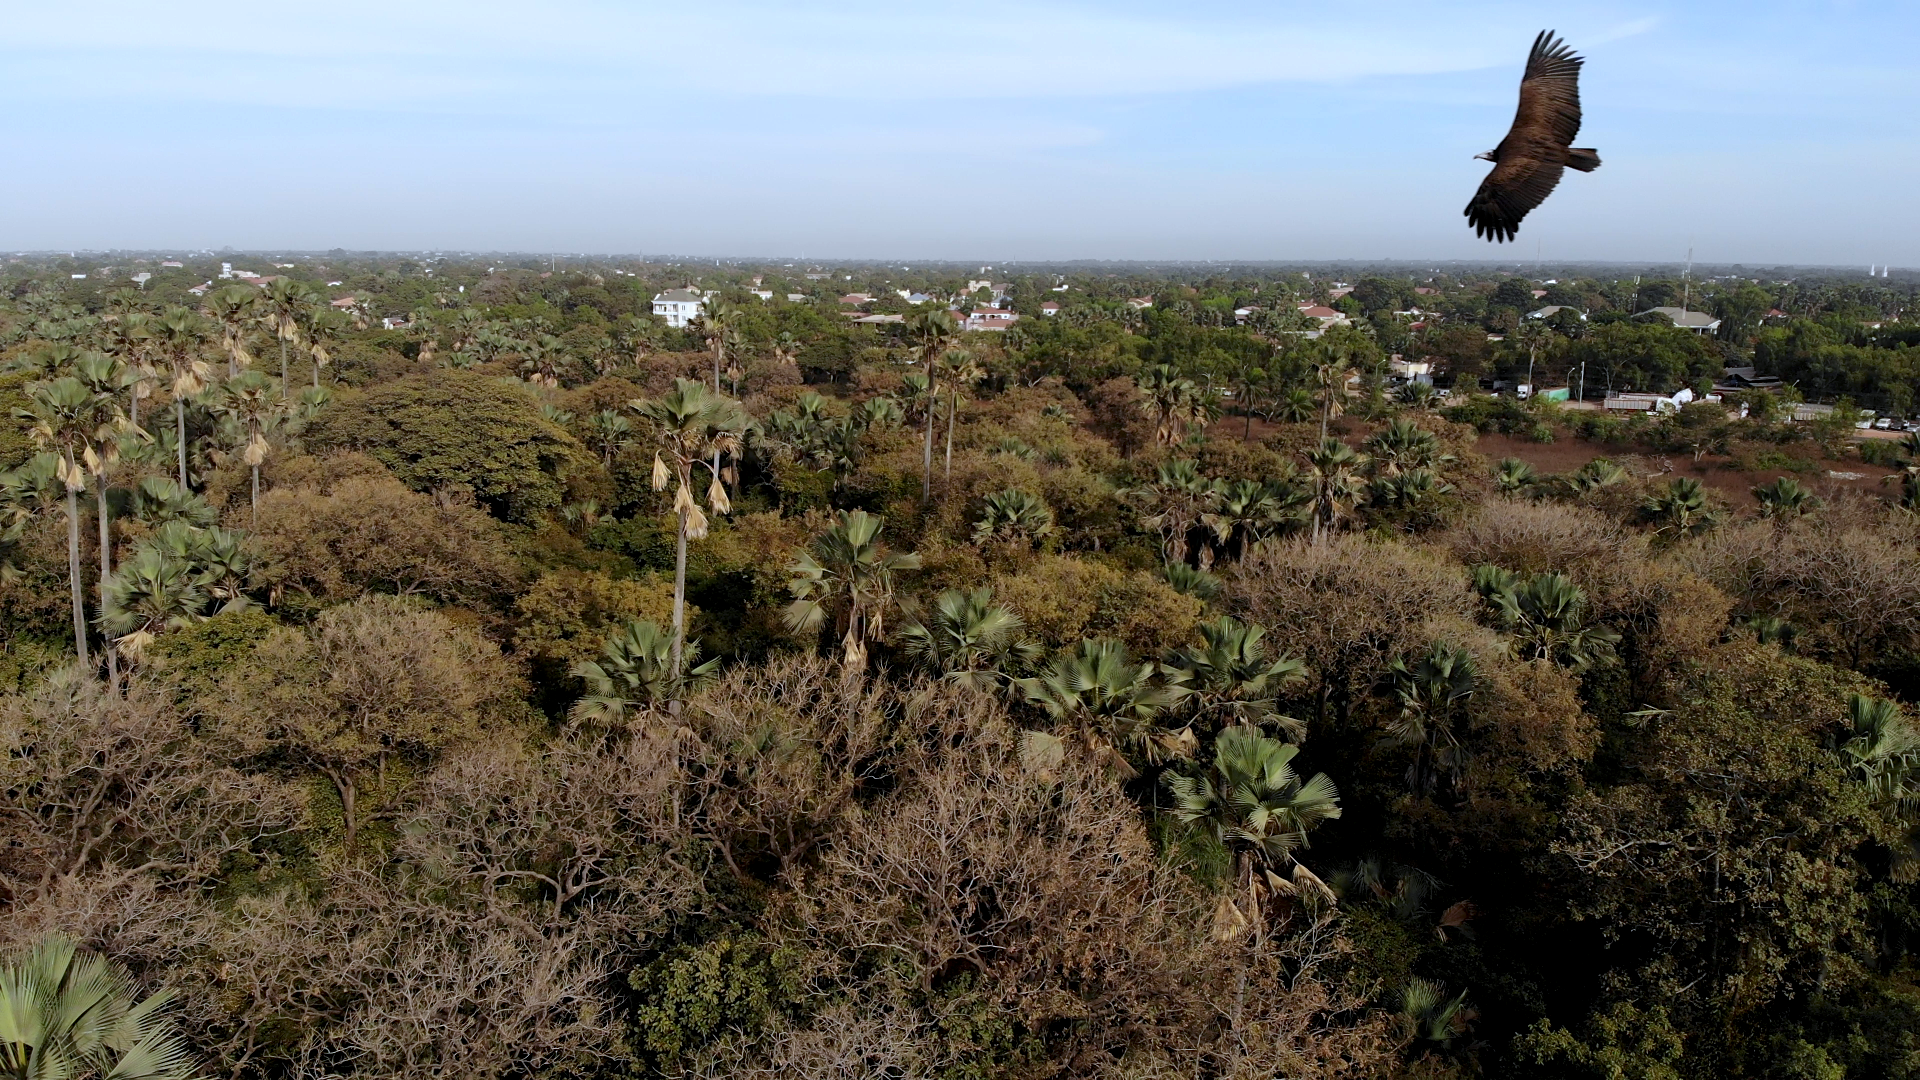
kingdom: Animalia
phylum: Chordata
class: Aves
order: Accipitriformes
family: Accipitridae
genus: Necrosyrtes
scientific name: Necrosyrtes monachus
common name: Hooded vulture
